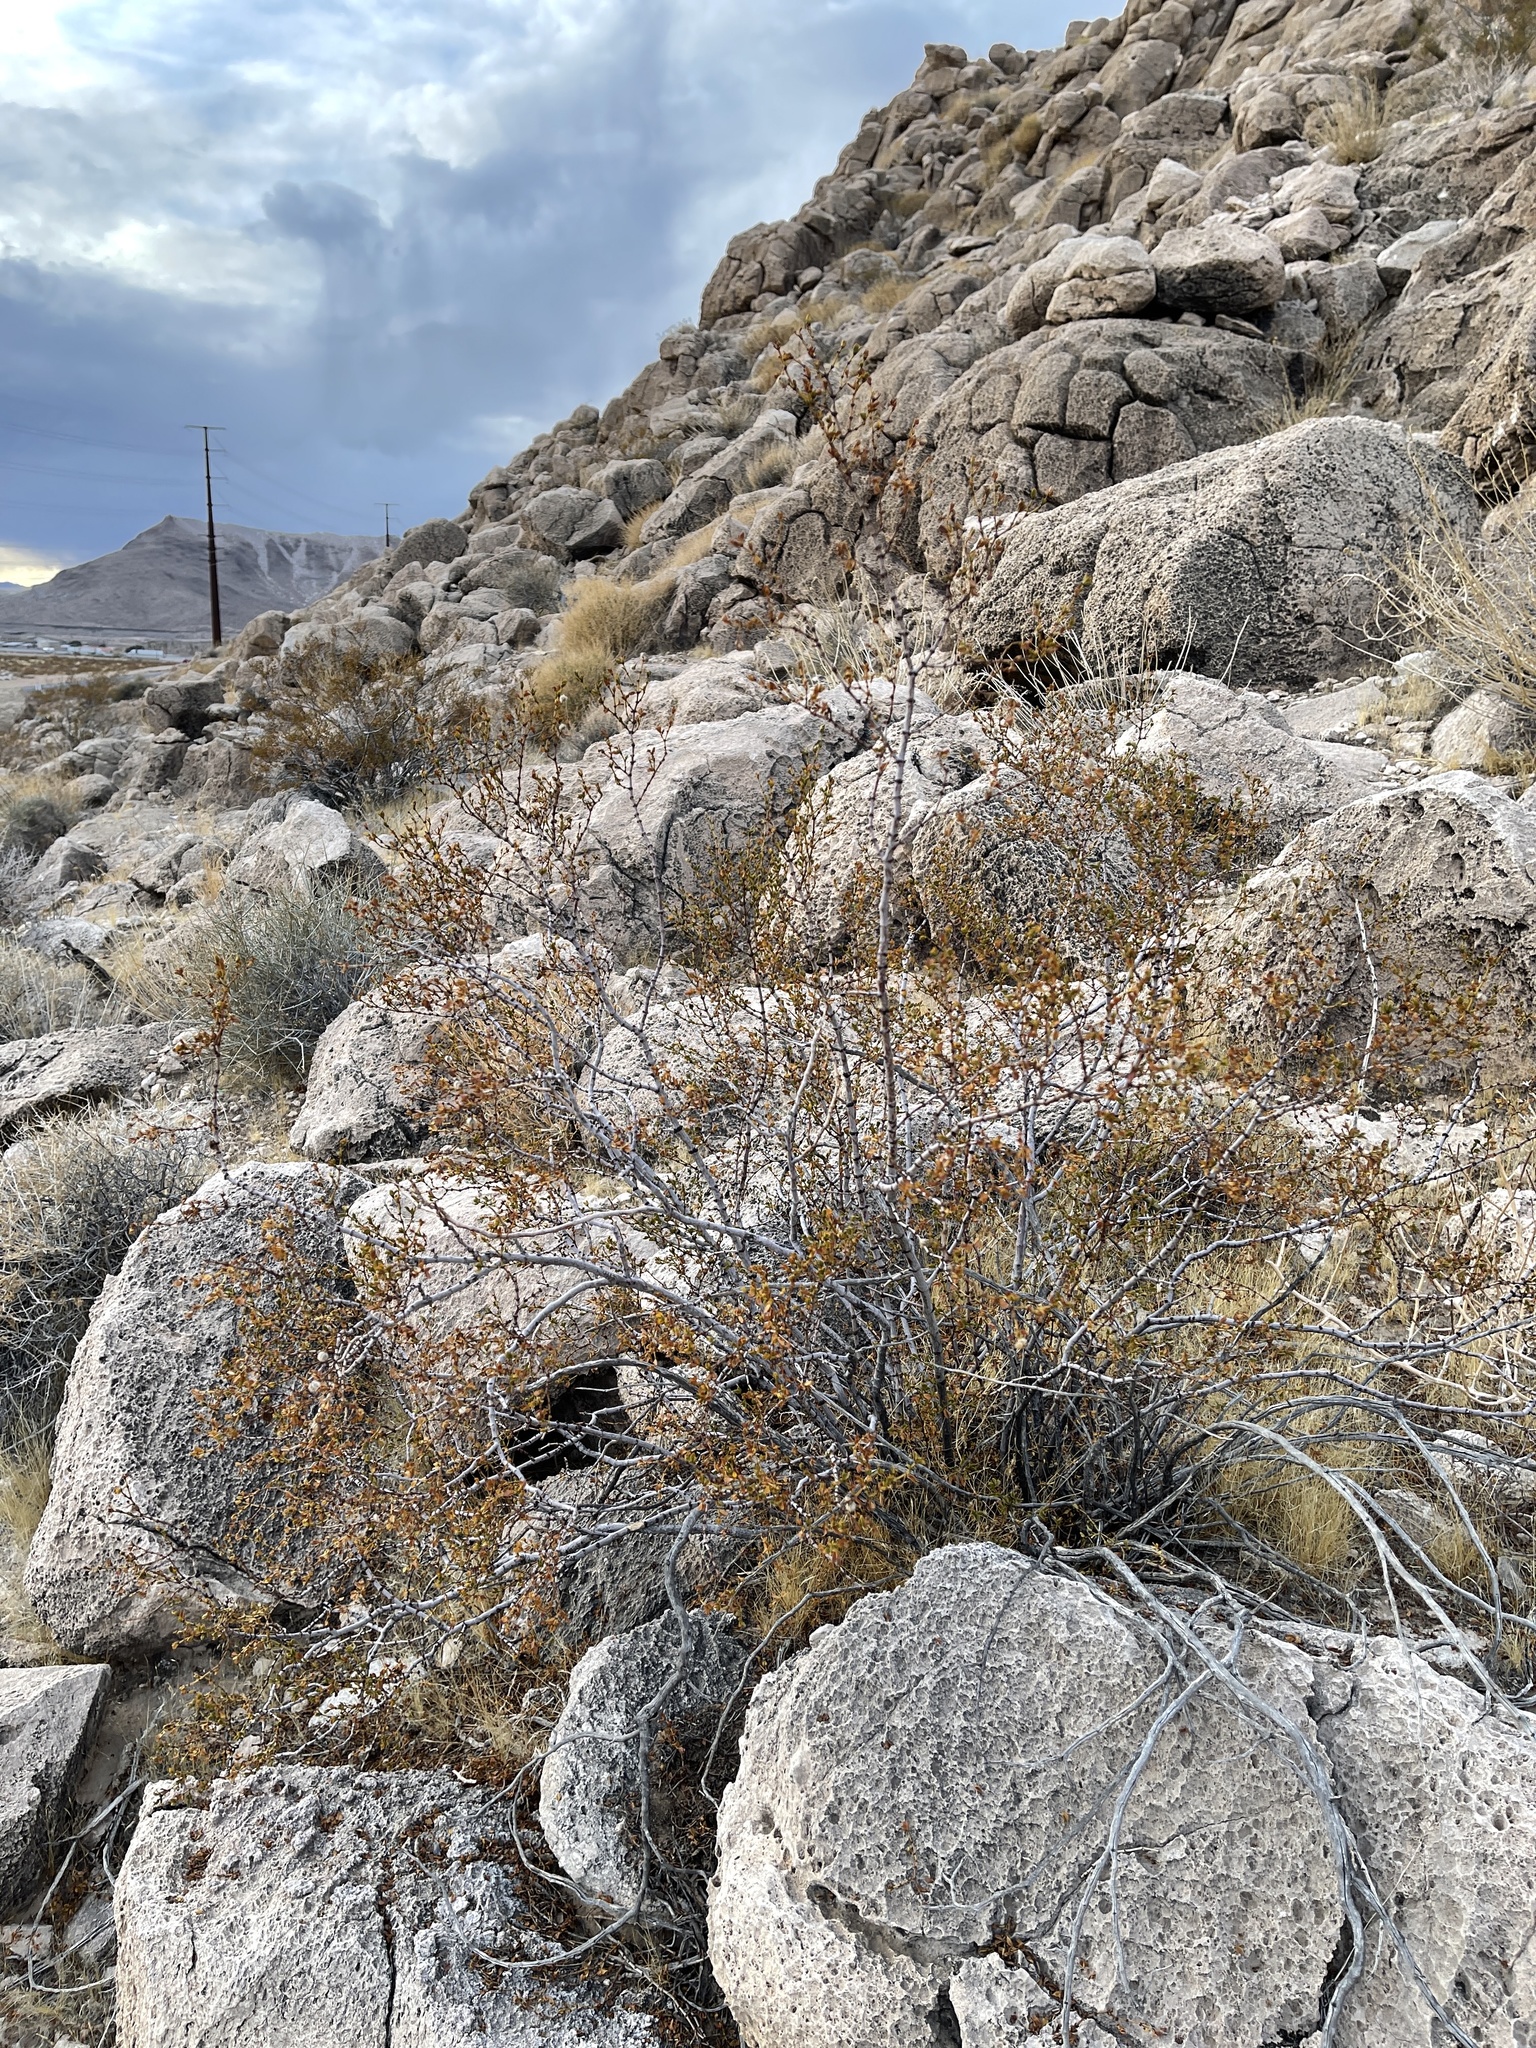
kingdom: Plantae
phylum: Tracheophyta
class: Magnoliopsida
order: Zygophyllales
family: Zygophyllaceae
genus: Larrea
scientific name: Larrea tridentata
